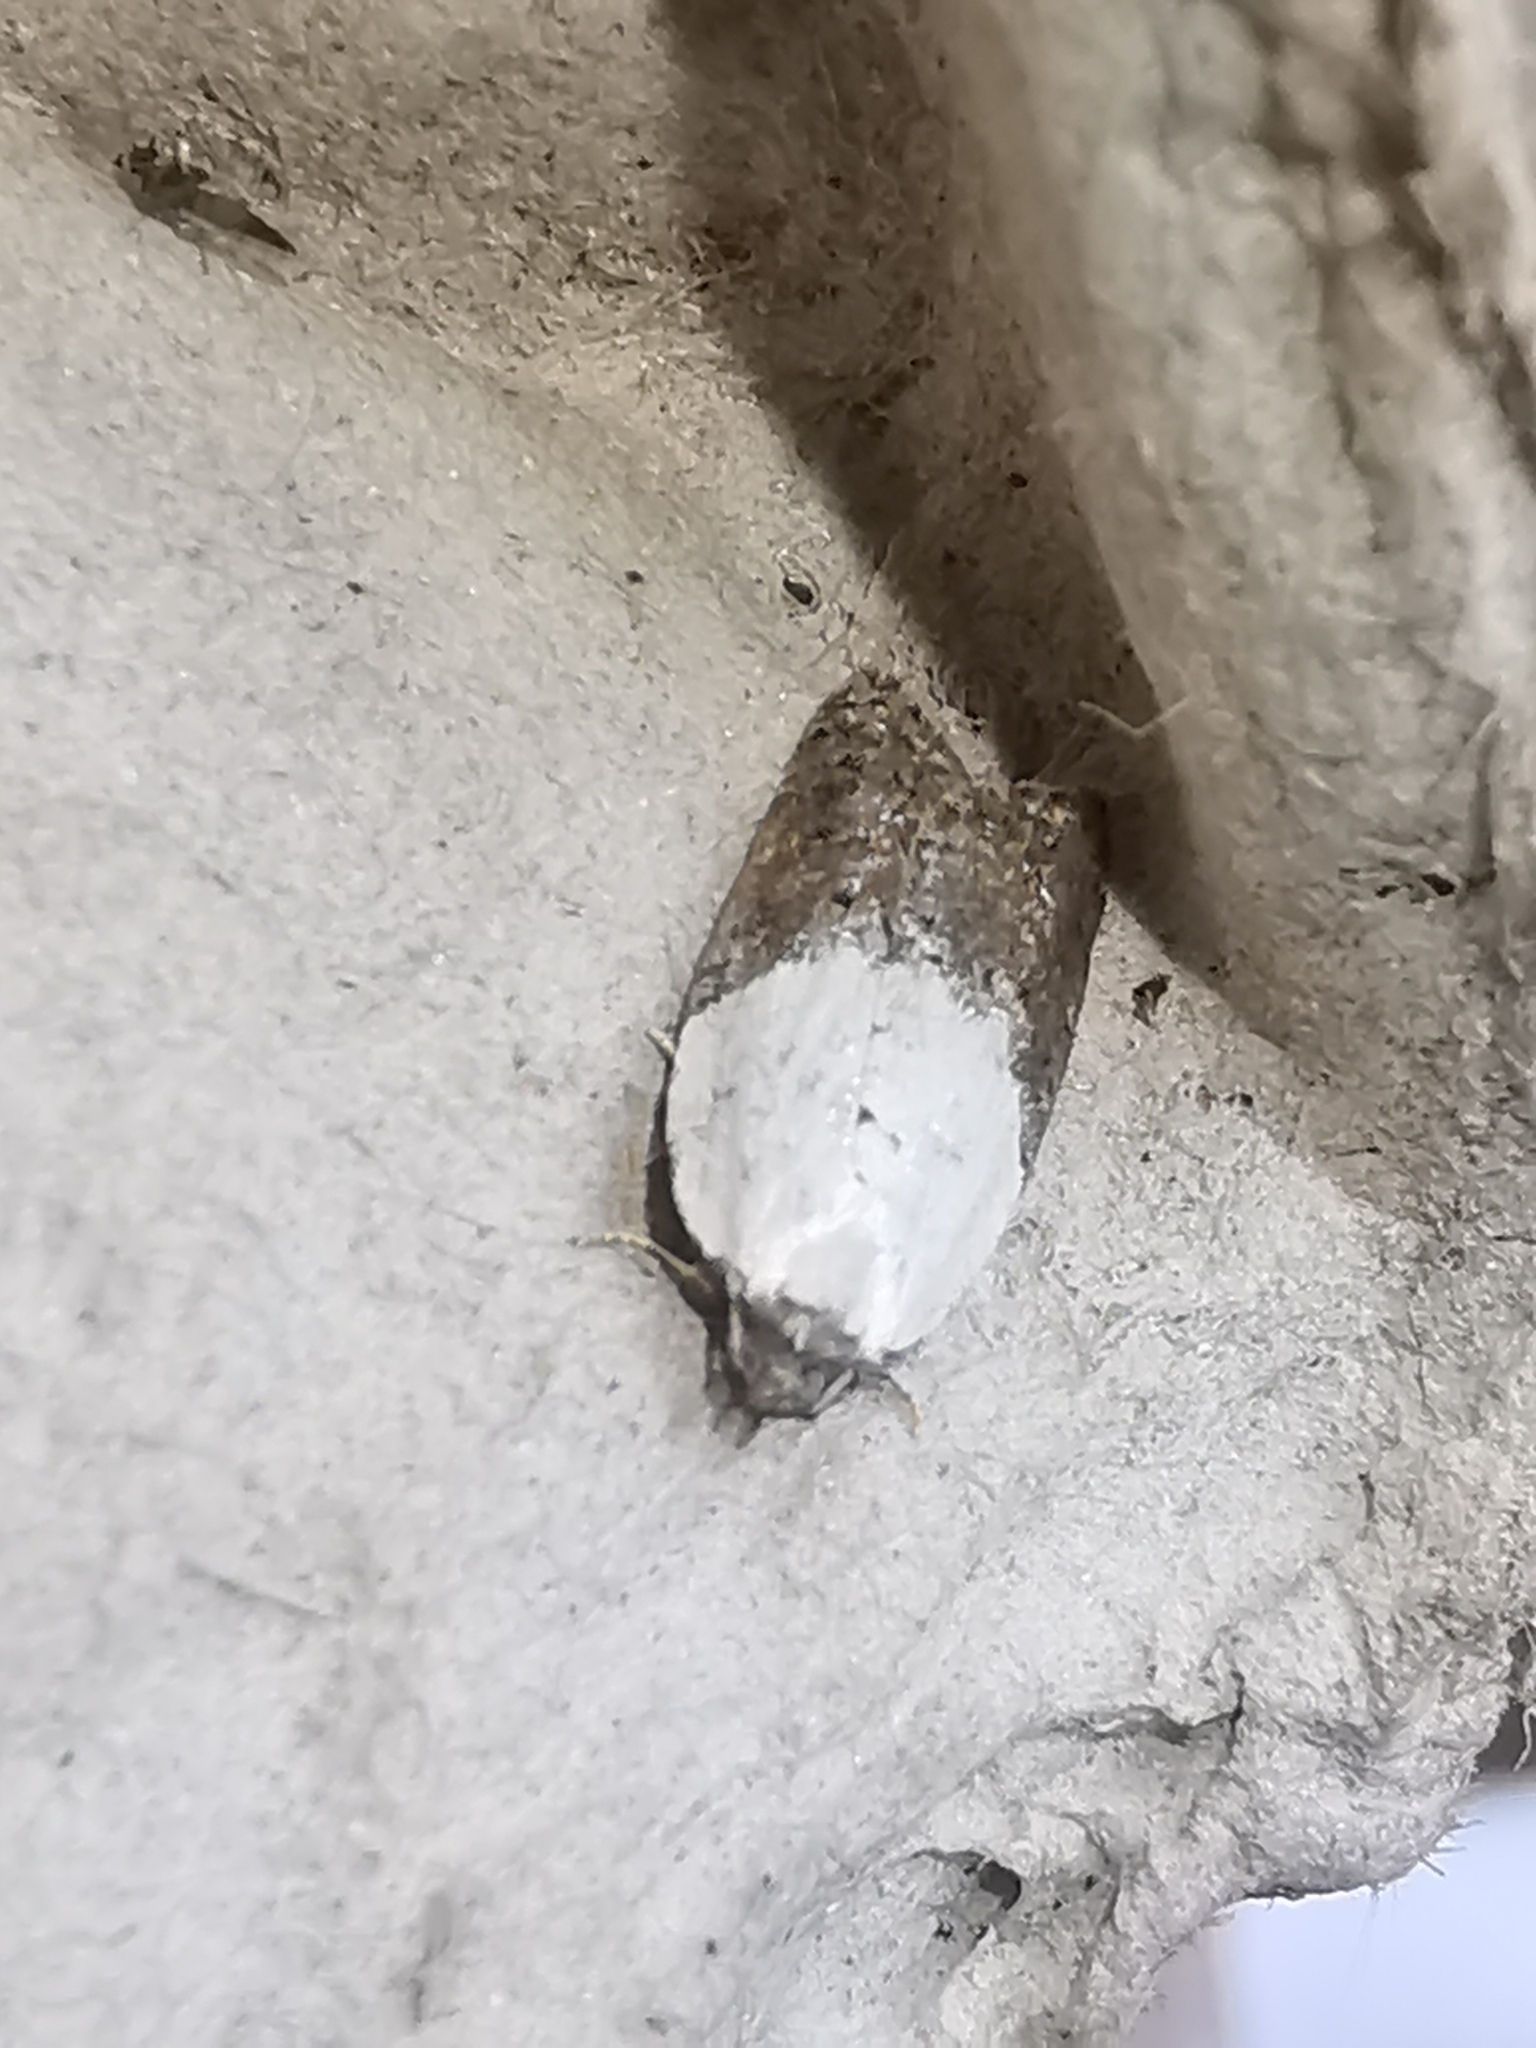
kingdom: Animalia
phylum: Arthropoda
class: Insecta
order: Lepidoptera
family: Tortricidae
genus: Acleris
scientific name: Acleris variegana
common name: Garden rose tortrix
